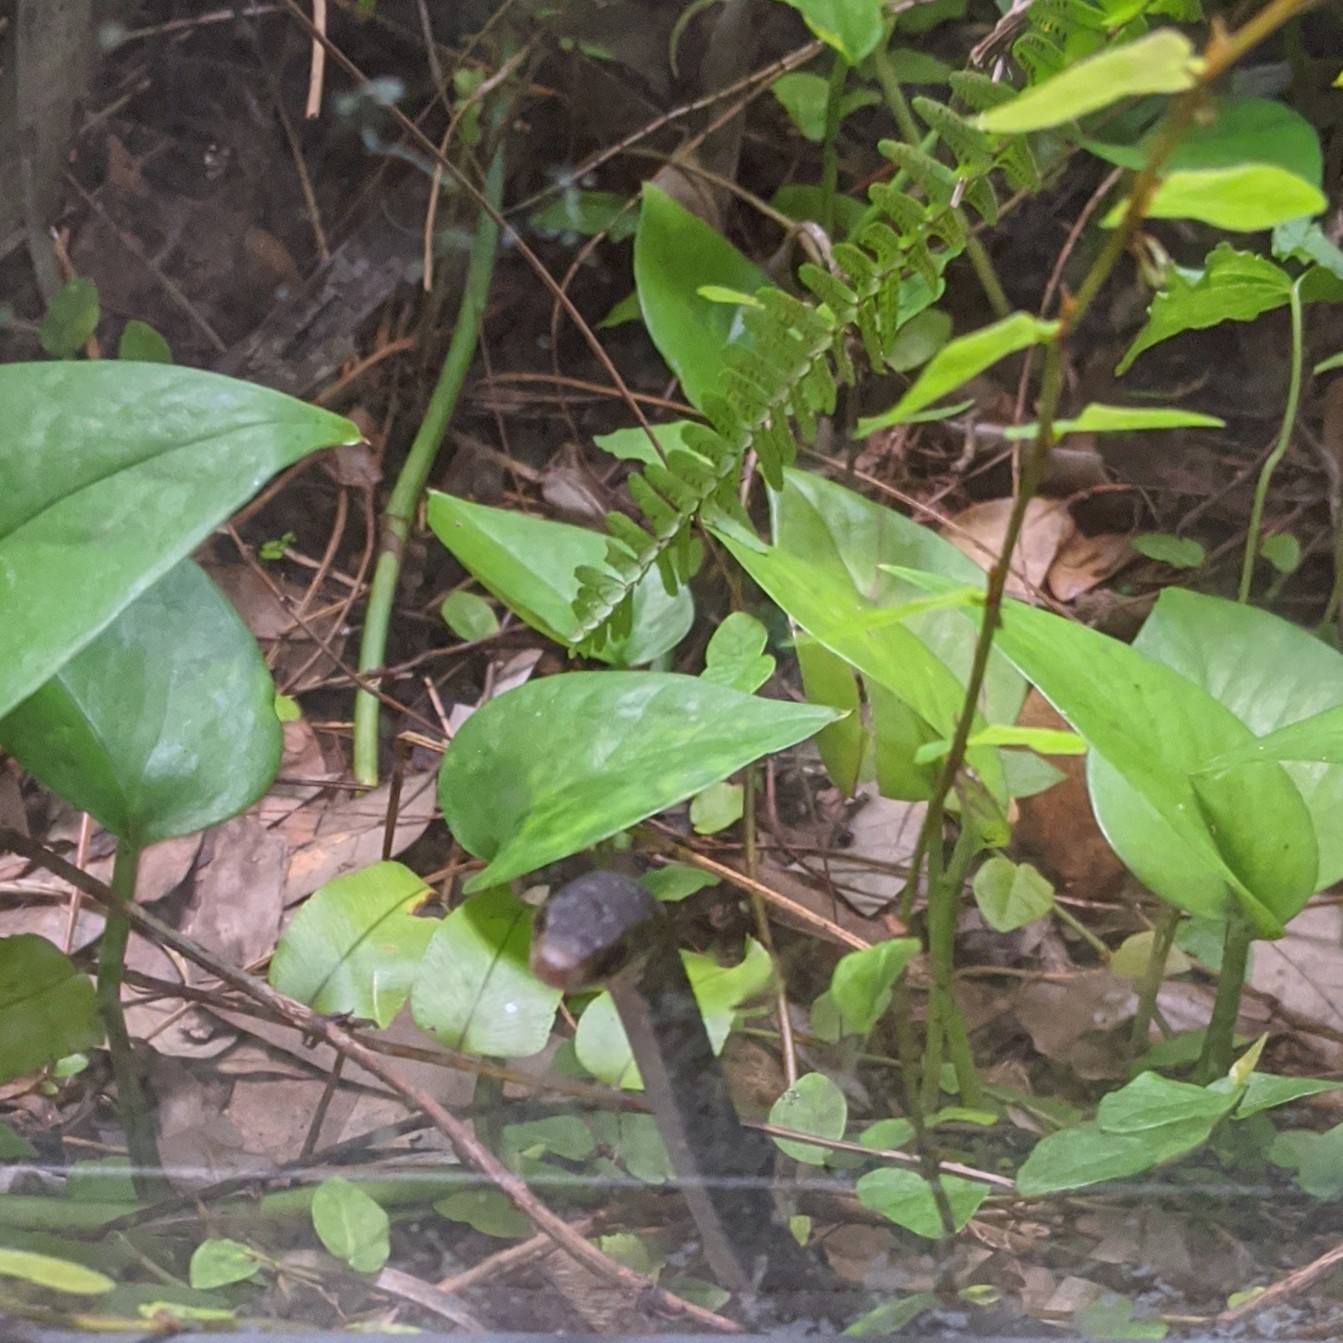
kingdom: Animalia
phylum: Chordata
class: Squamata
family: Colubridae
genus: Coluber
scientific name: Coluber constrictor
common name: Eastern racer
